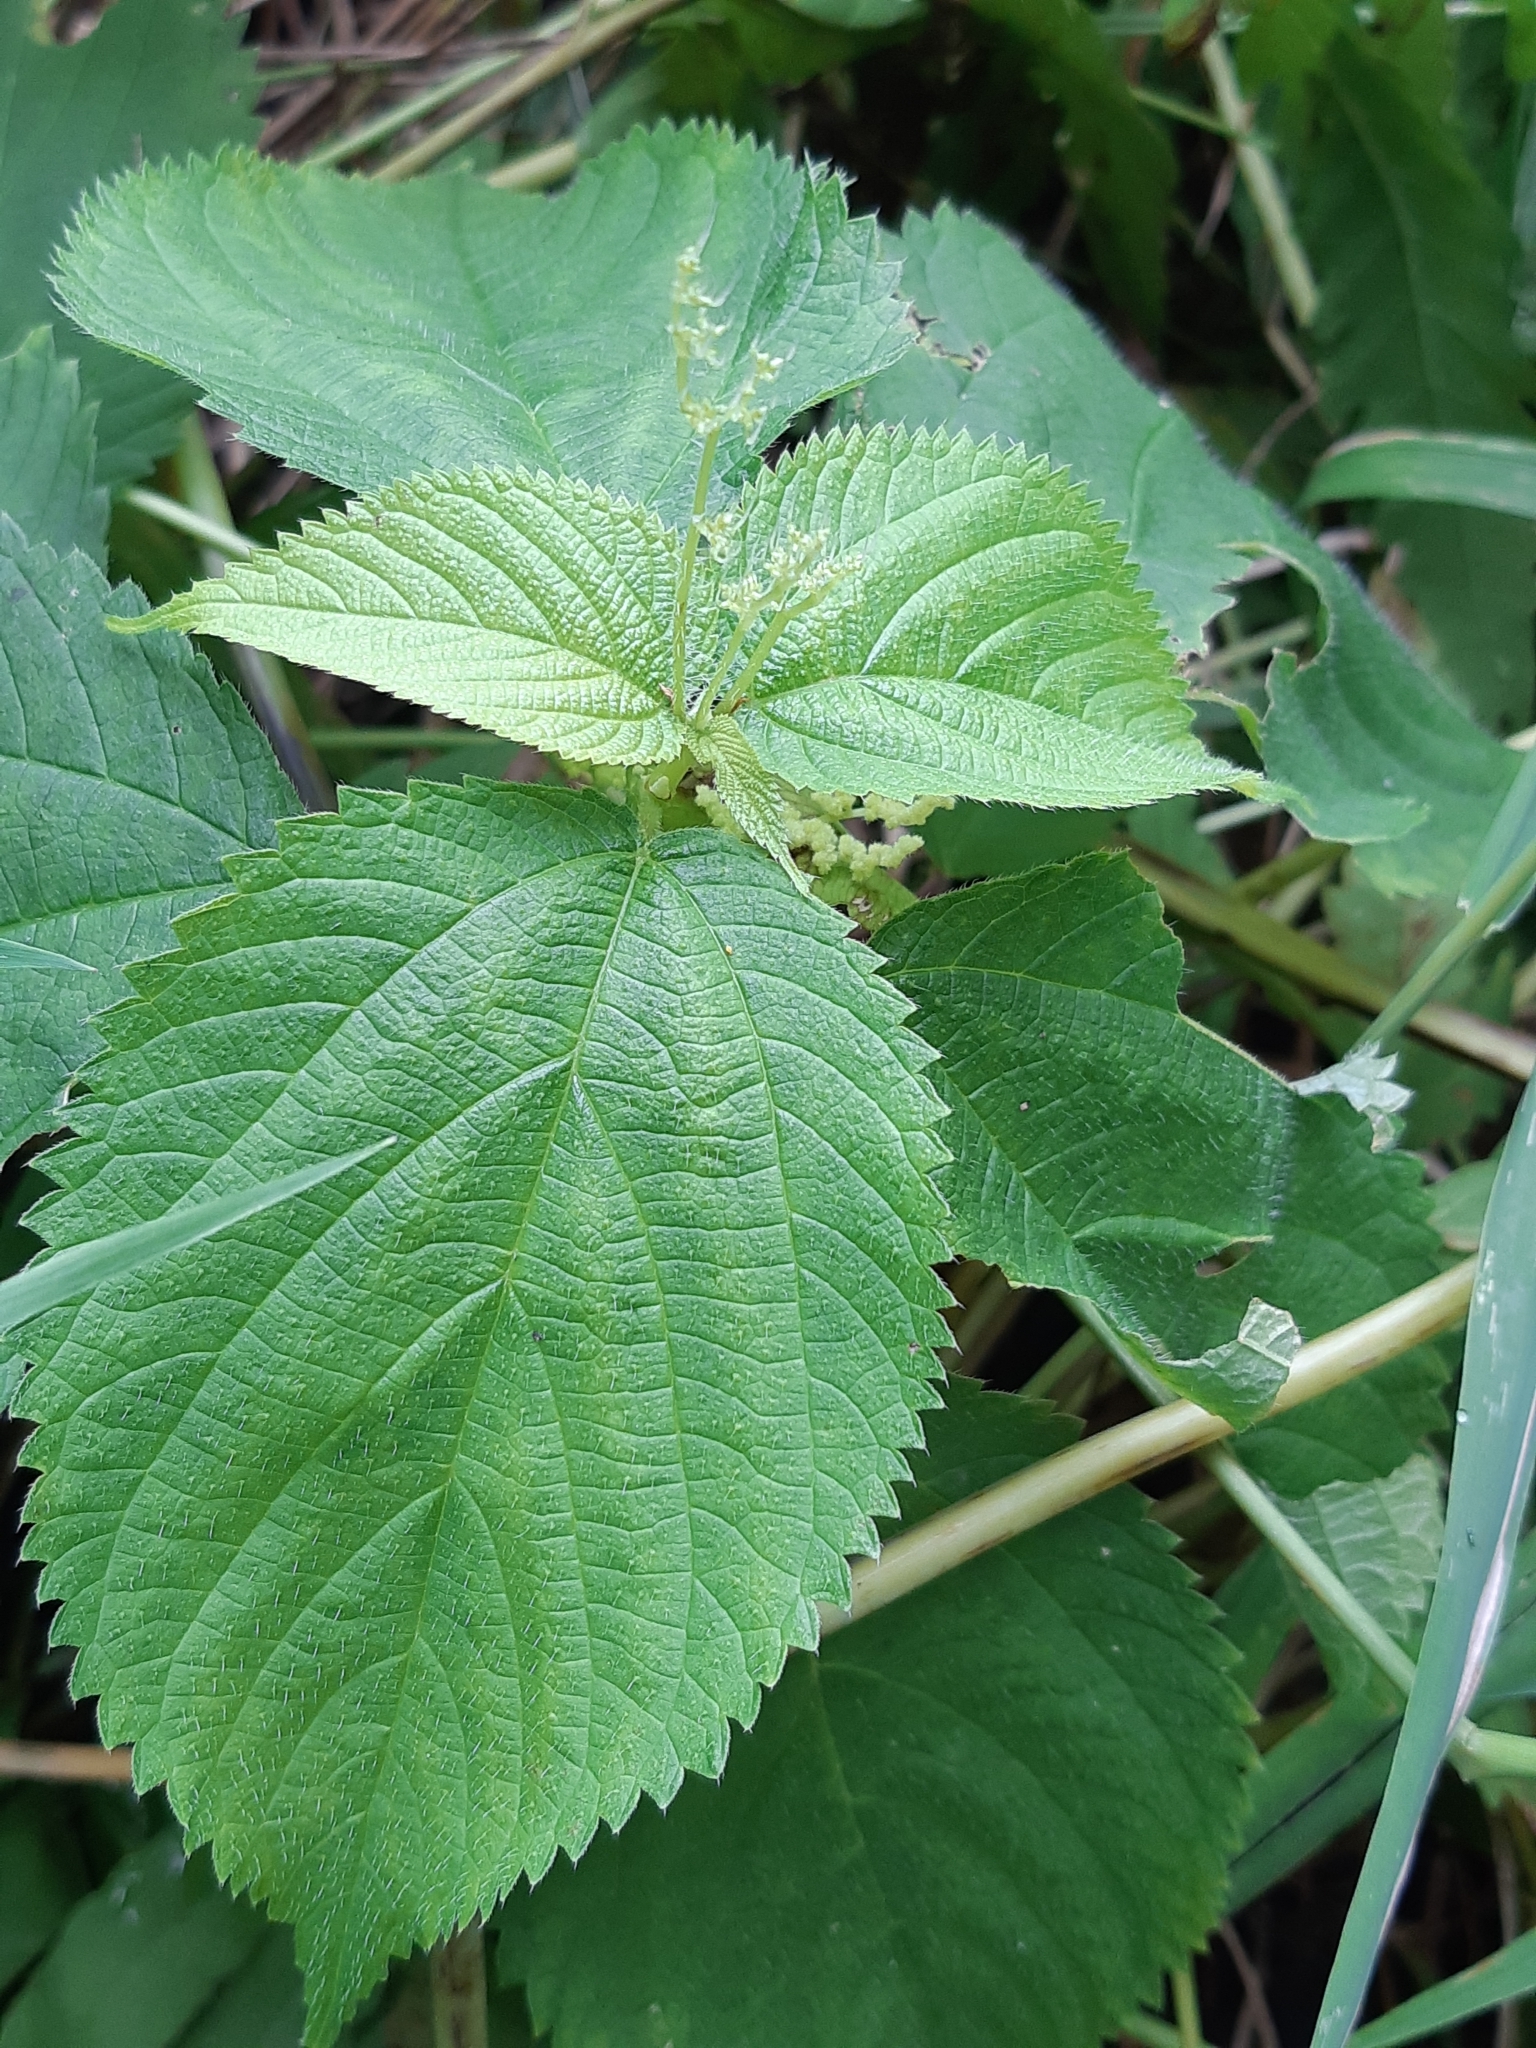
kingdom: Plantae
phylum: Tracheophyta
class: Magnoliopsida
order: Rosales
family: Urticaceae
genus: Laportea
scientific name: Laportea canadensis
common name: Canada nettle
